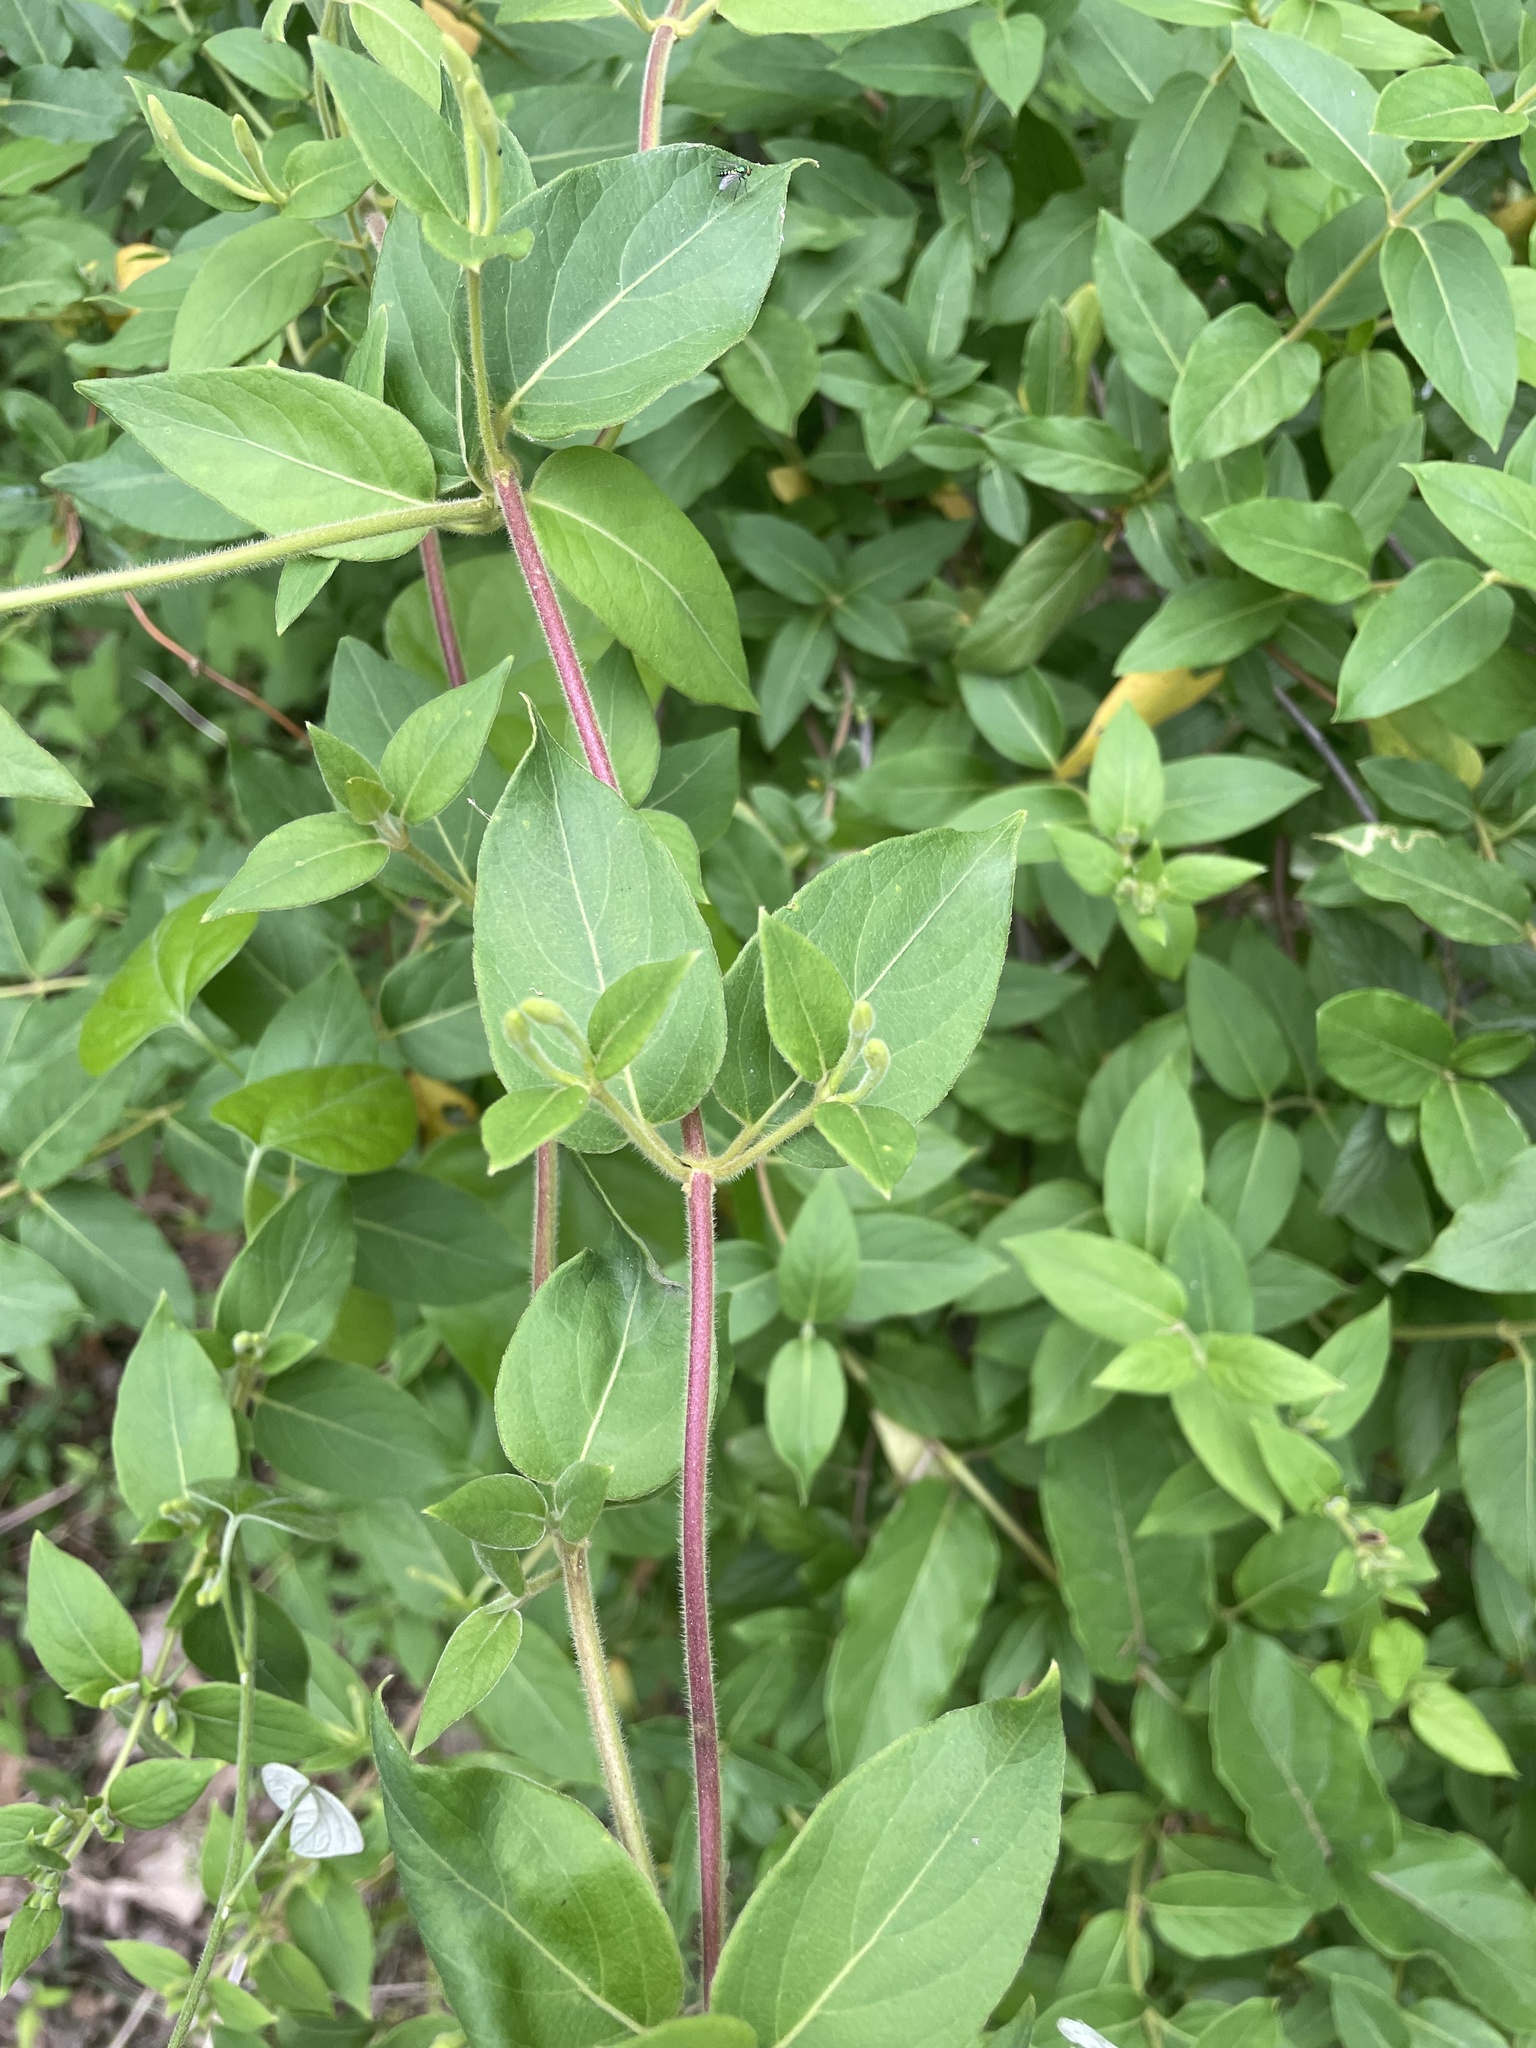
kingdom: Plantae
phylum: Tracheophyta
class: Magnoliopsida
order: Dipsacales
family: Caprifoliaceae
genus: Lonicera
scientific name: Lonicera japonica
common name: Japanese honeysuckle
